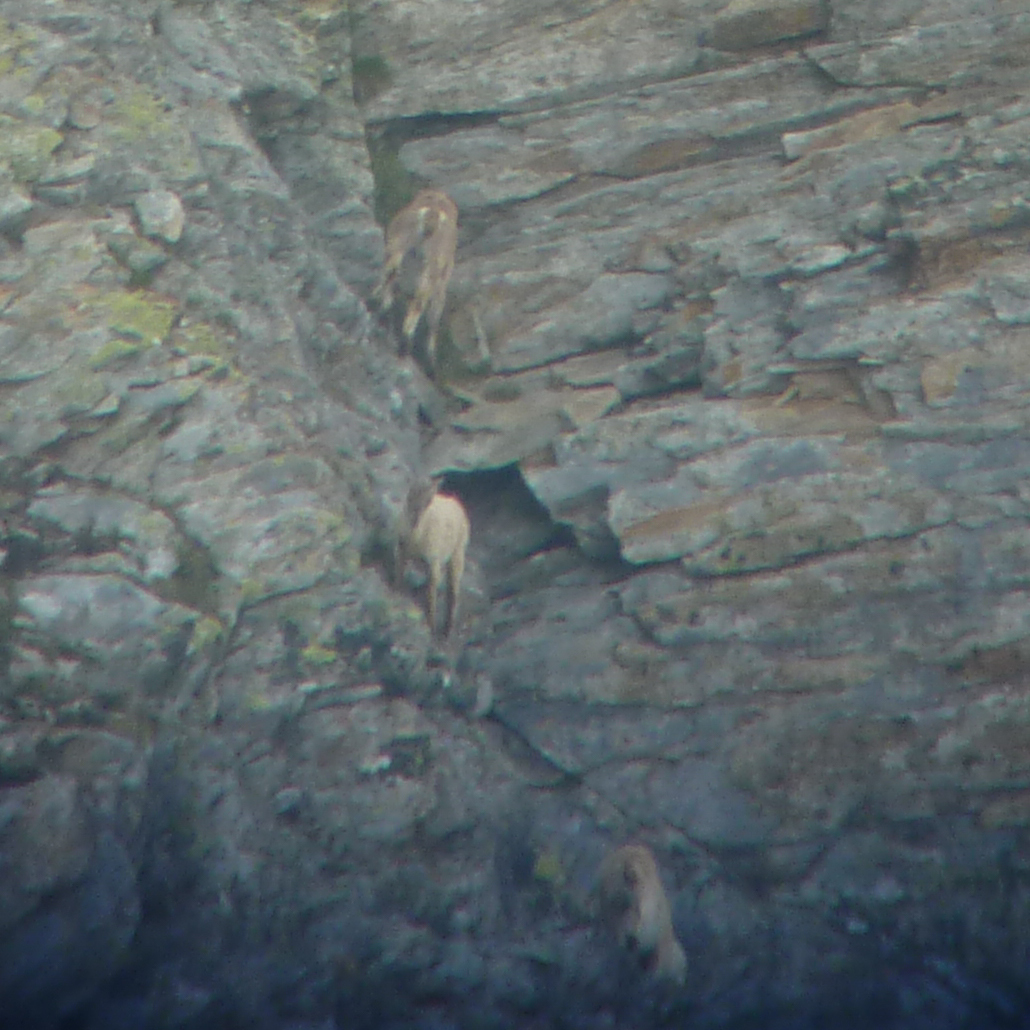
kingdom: Animalia
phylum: Chordata
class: Mammalia
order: Artiodactyla
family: Bovidae
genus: Capra
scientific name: Capra ibex
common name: Alpine ibex
